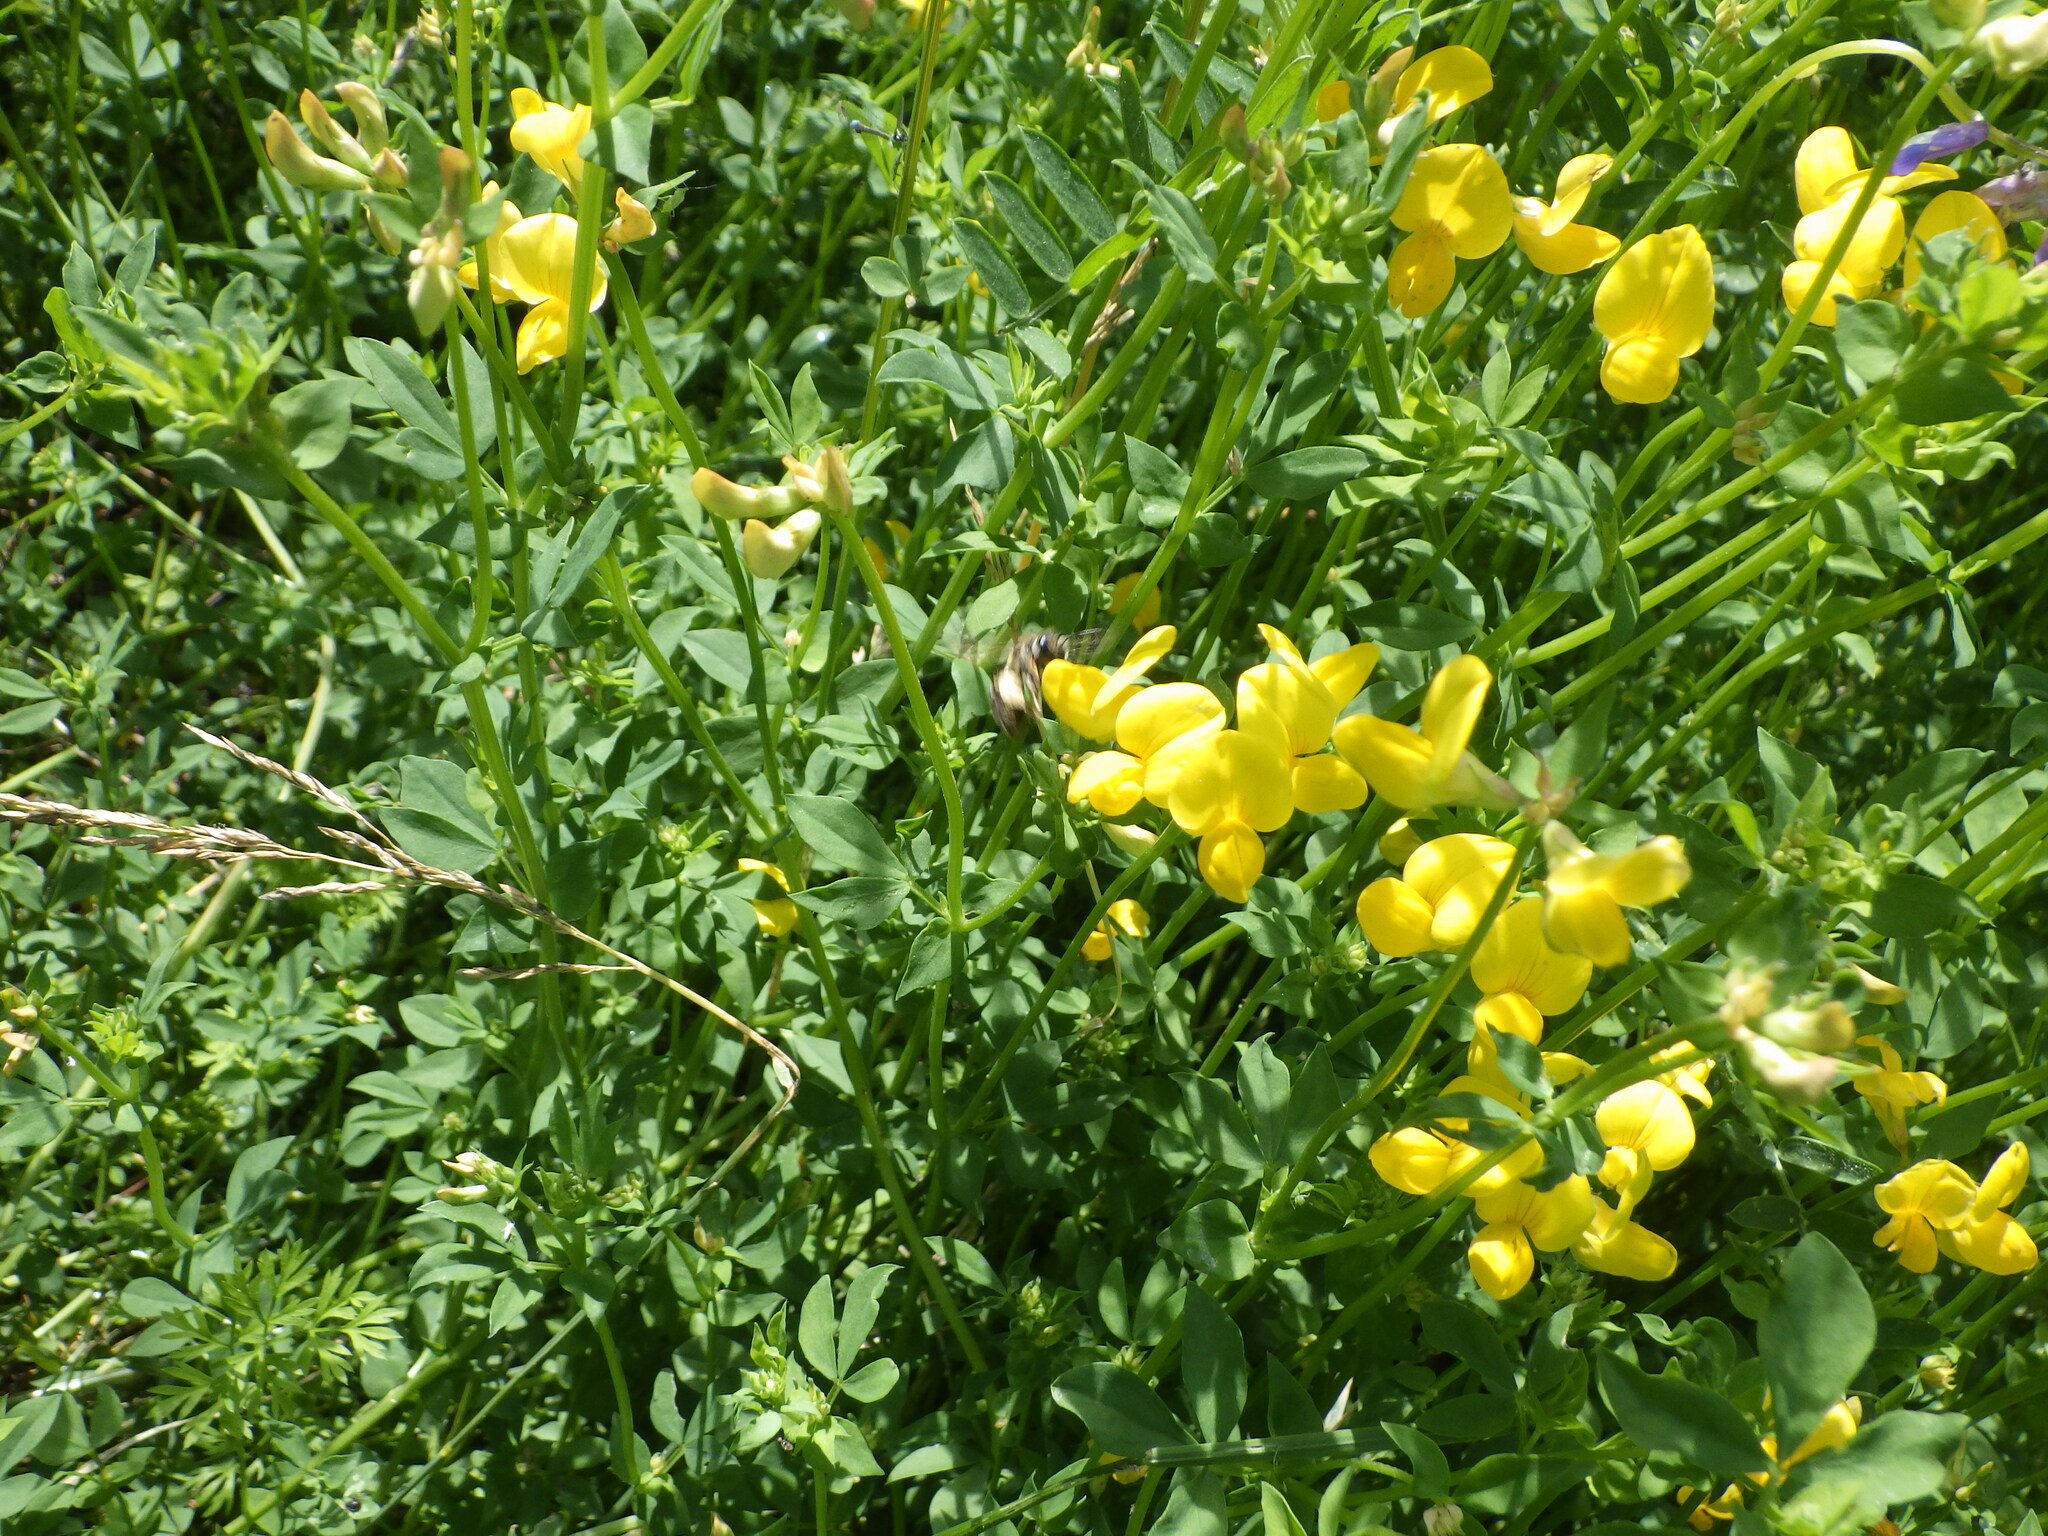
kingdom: Plantae
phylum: Tracheophyta
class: Magnoliopsida
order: Fabales
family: Fabaceae
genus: Lotus
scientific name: Lotus corniculatus
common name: Common bird's-foot-trefoil
